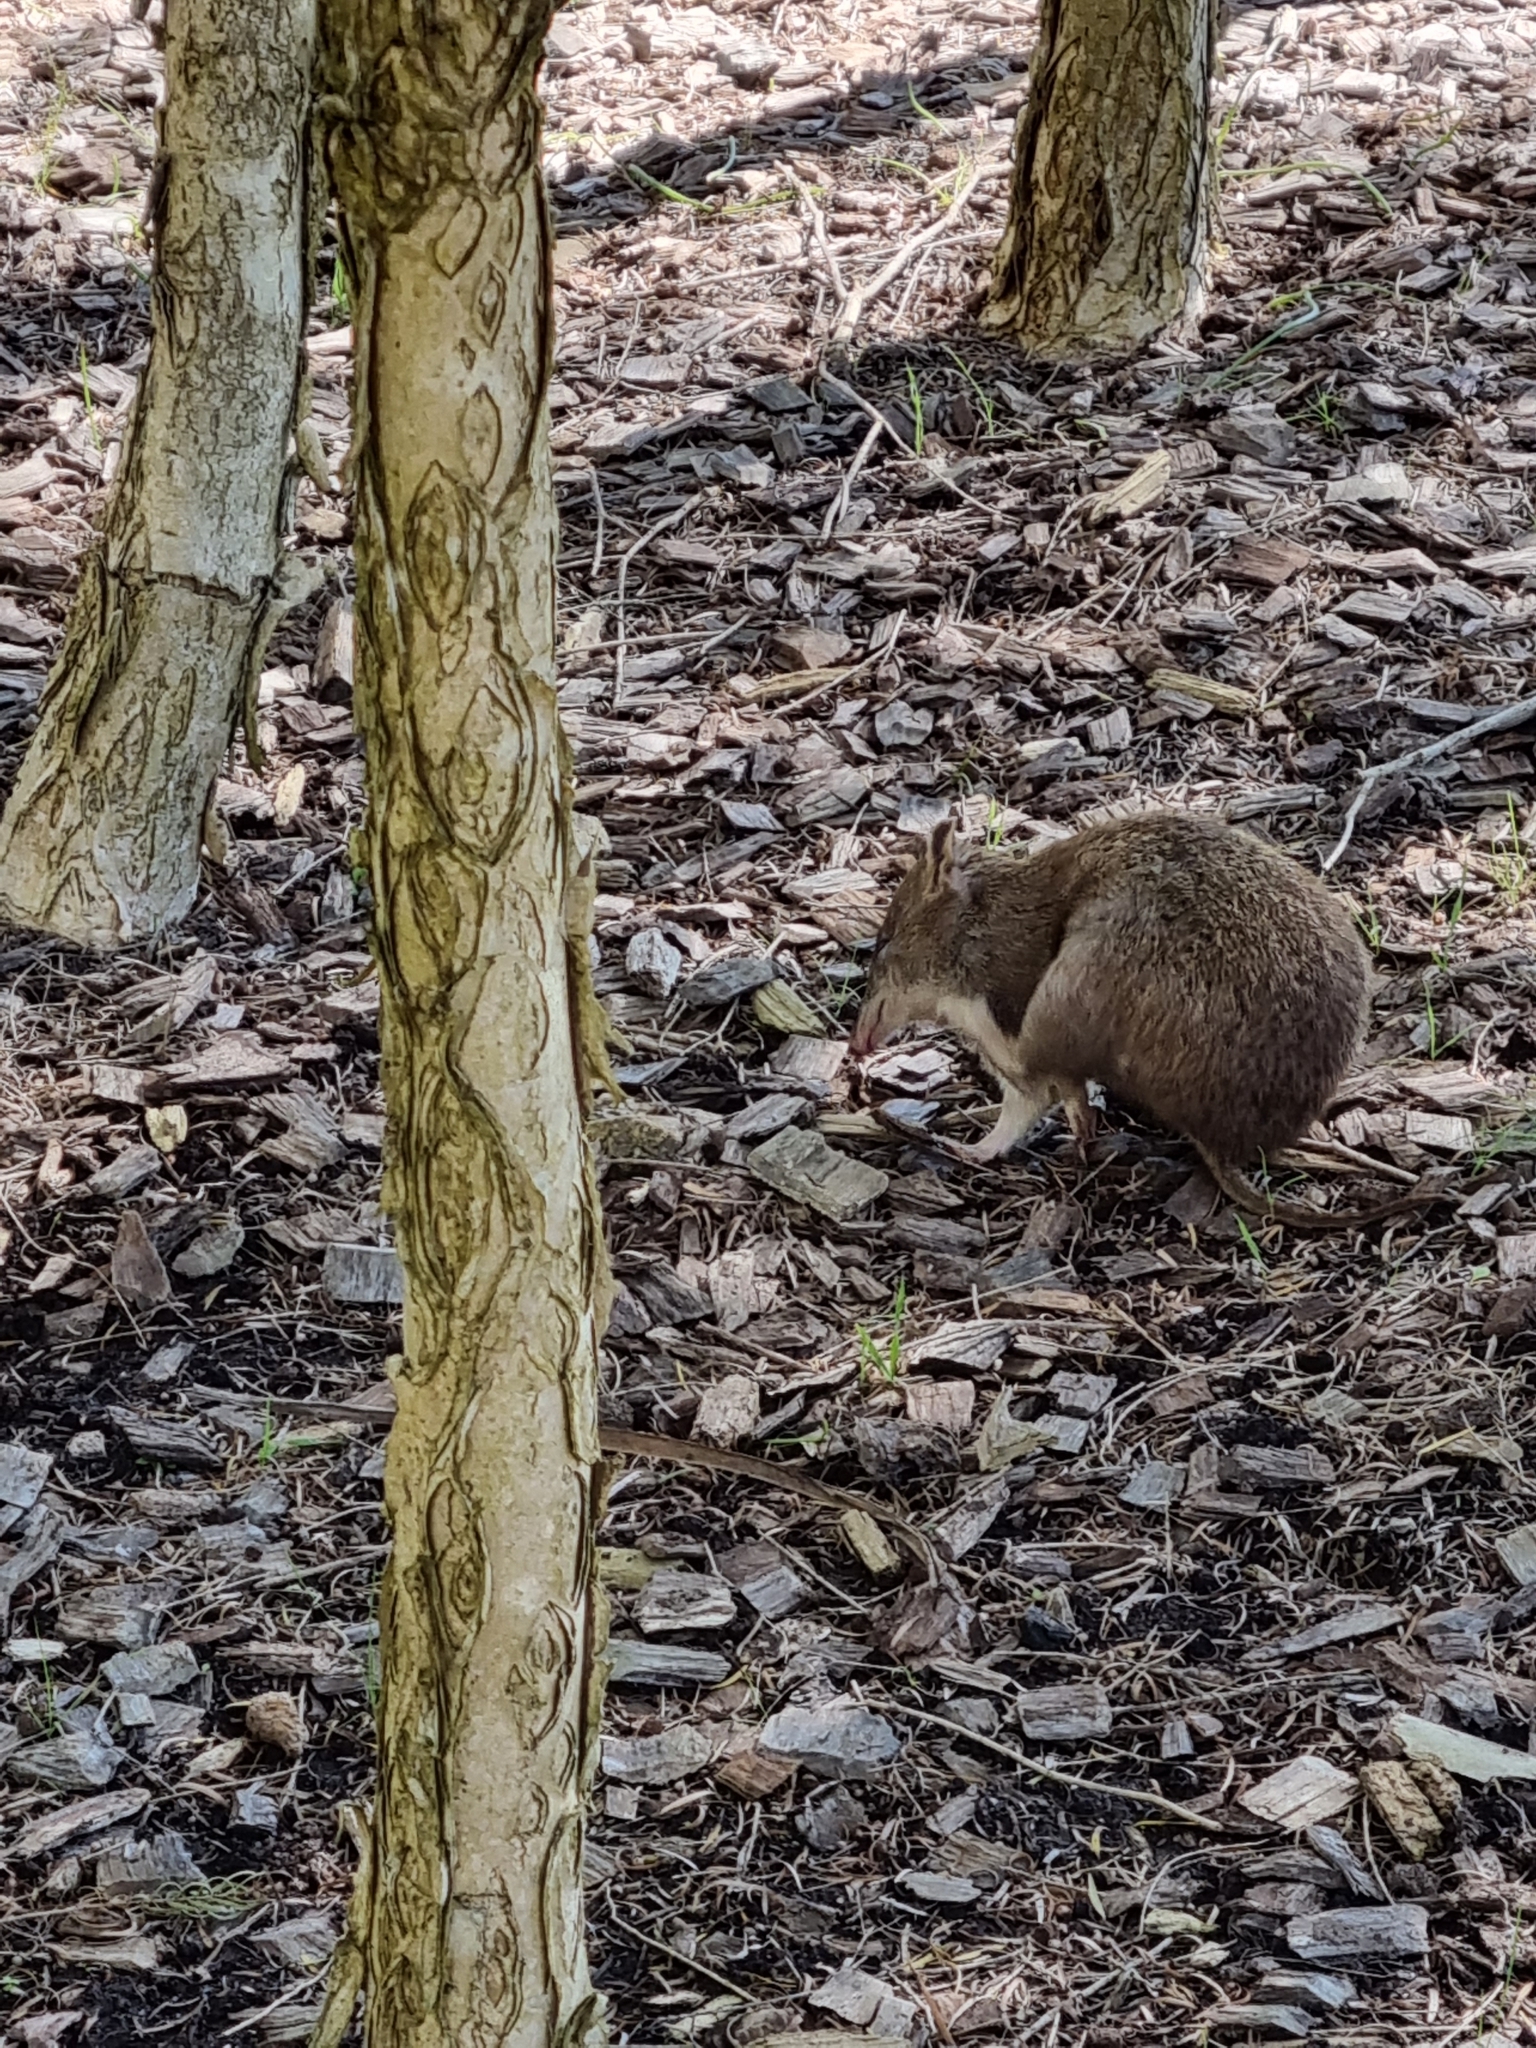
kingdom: Animalia
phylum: Chordata
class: Mammalia
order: Peramelemorphia
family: Peramelidae
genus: Isoodon
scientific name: Isoodon obesulus
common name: Southern brown bandicoot
